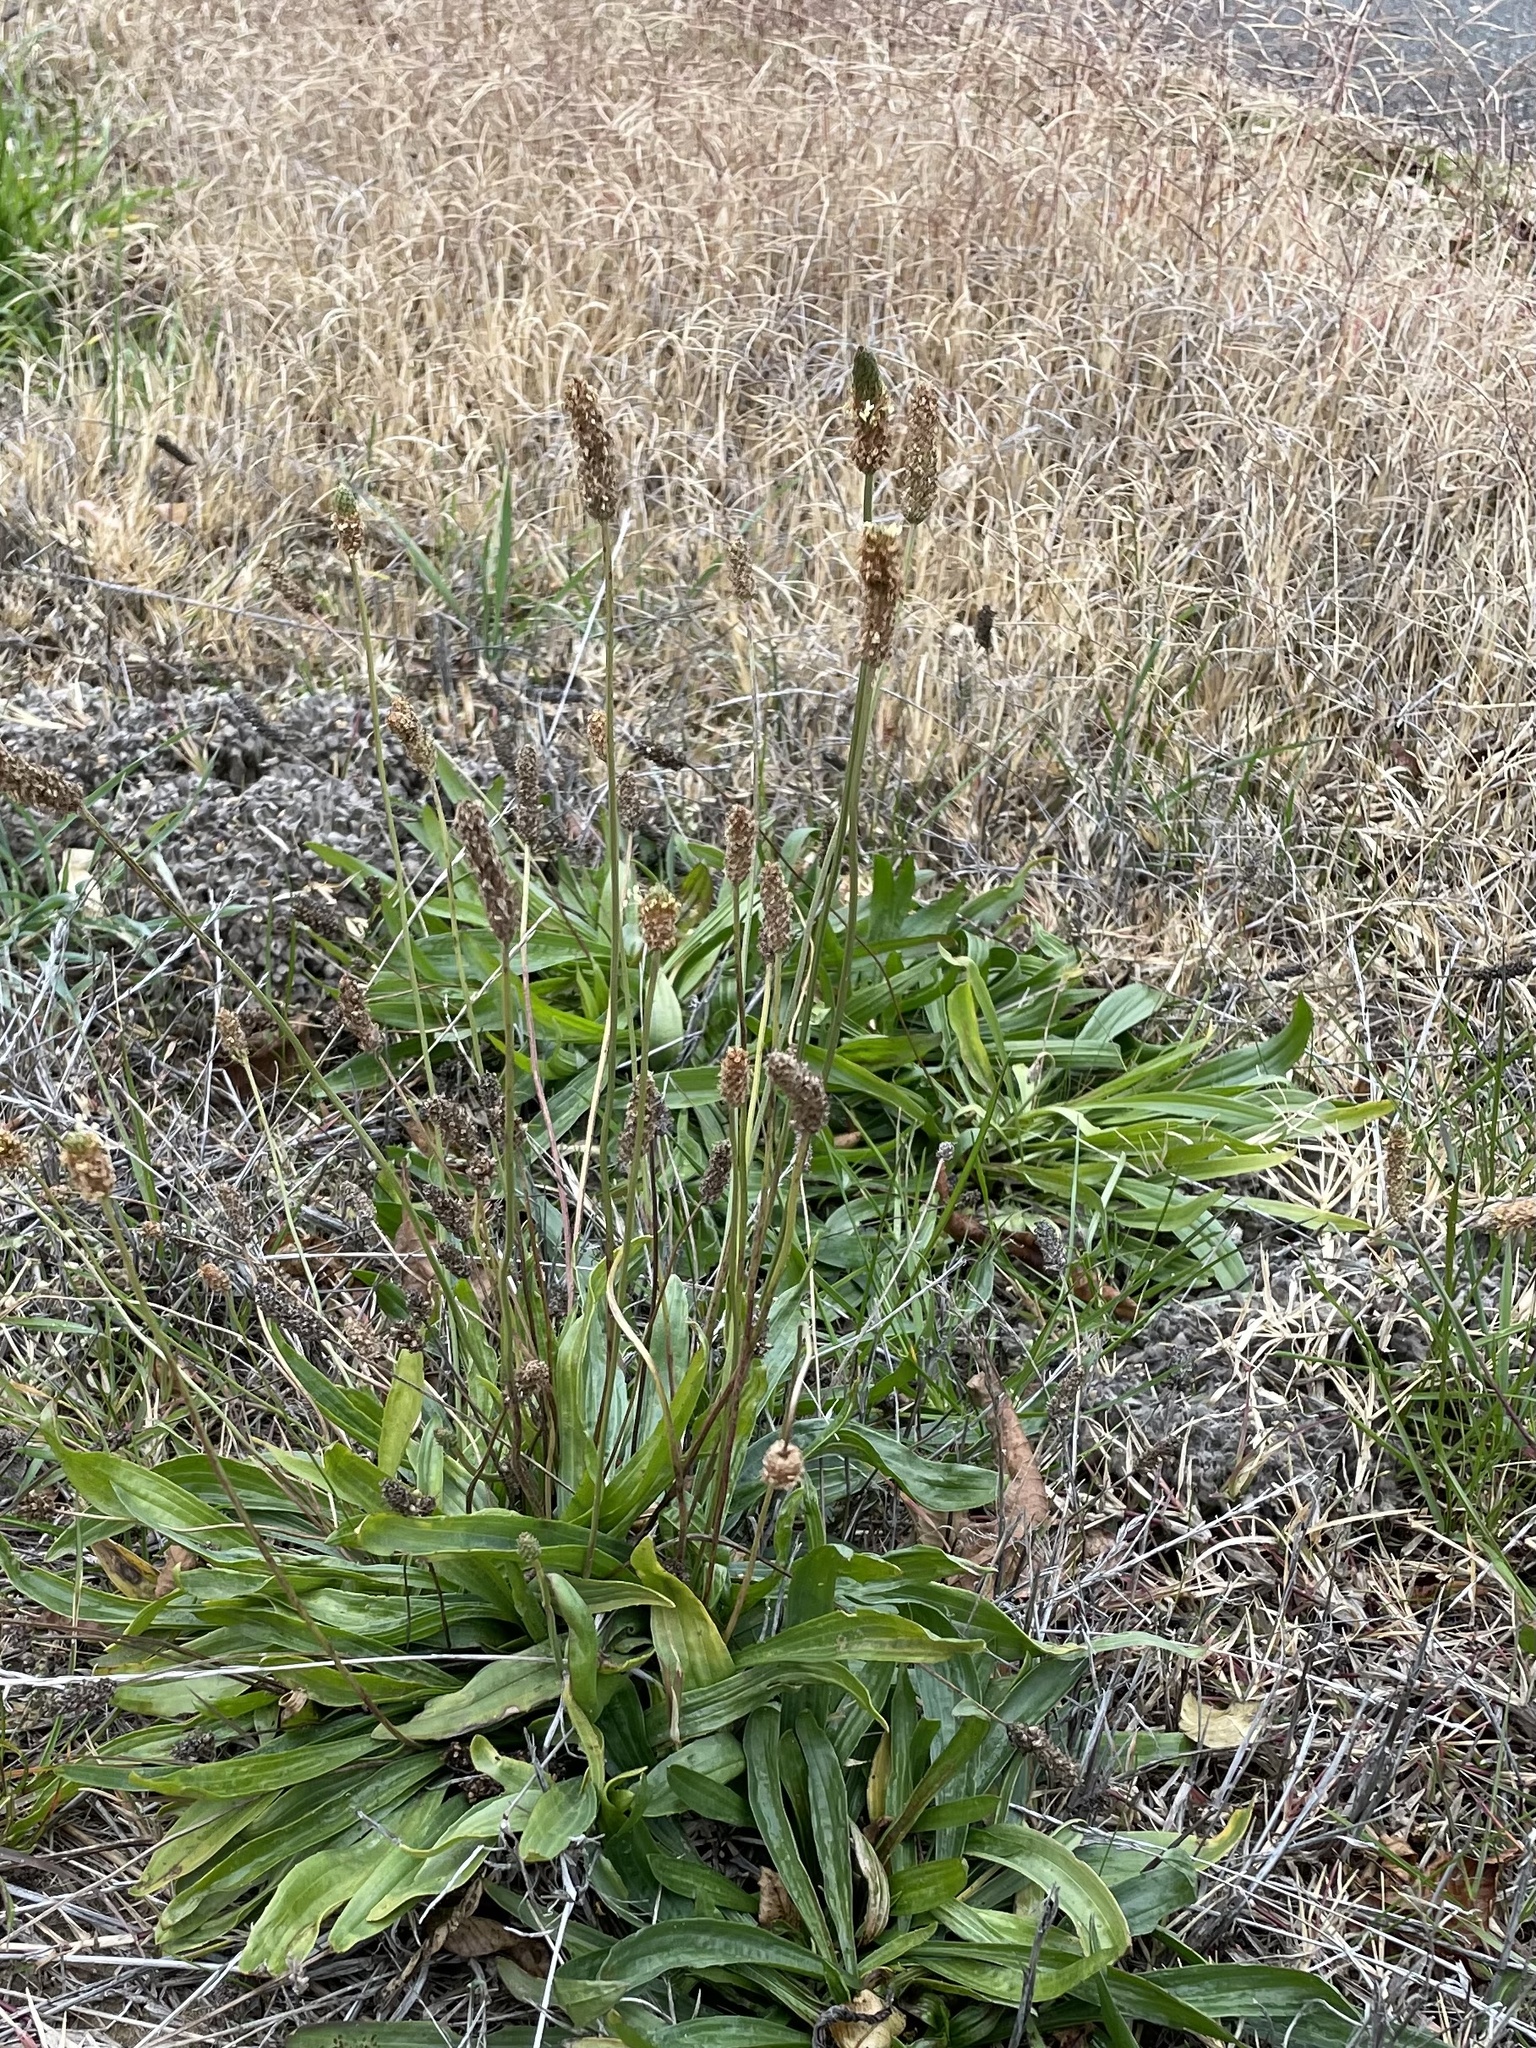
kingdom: Plantae
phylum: Tracheophyta
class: Magnoliopsida
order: Lamiales
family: Plantaginaceae
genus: Plantago
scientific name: Plantago lanceolata
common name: Ribwort plantain
